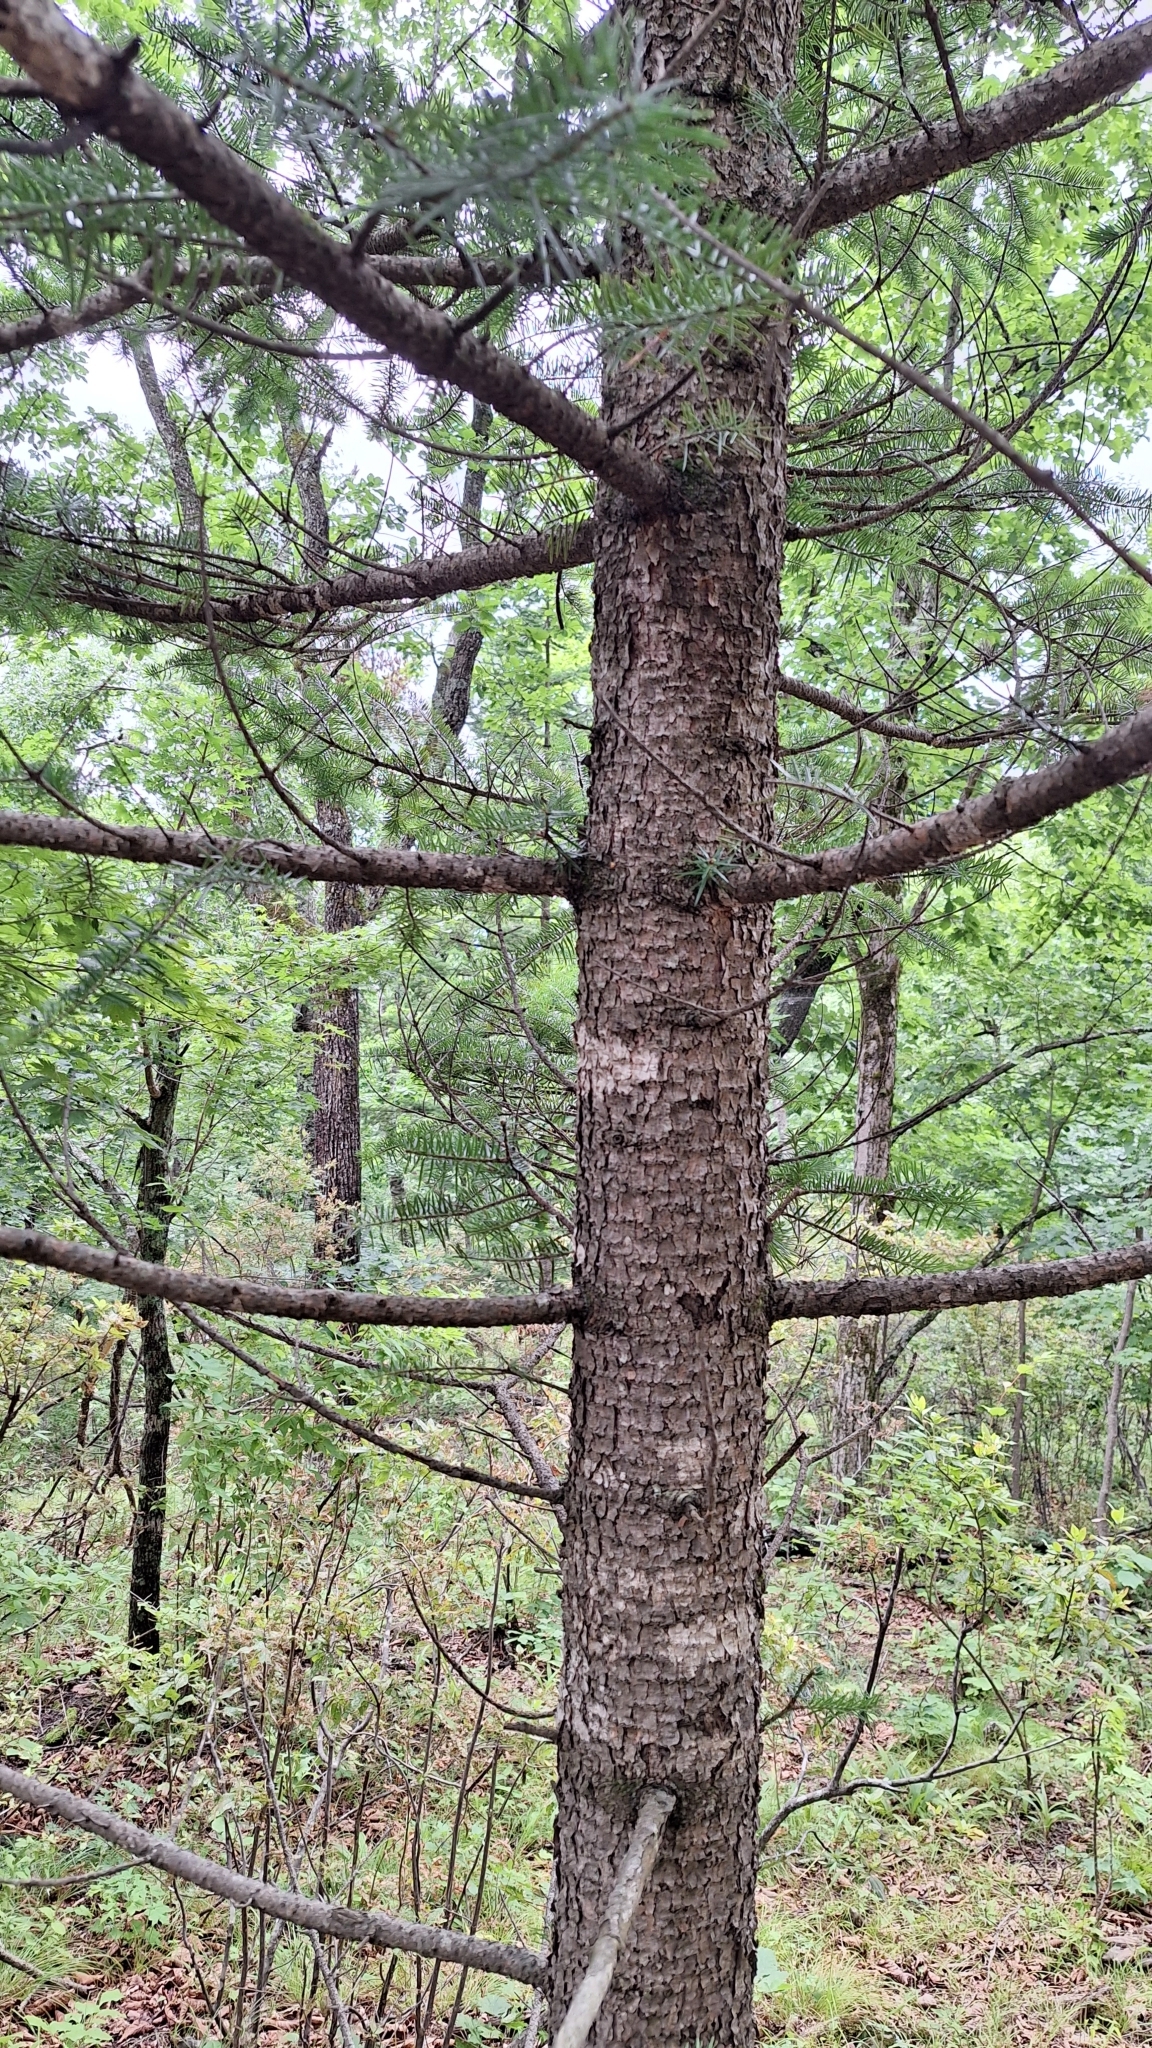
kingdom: Plantae
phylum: Tracheophyta
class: Pinopsida
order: Pinales
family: Pinaceae
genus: Abies
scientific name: Abies holophylla
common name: Manchurian fir
